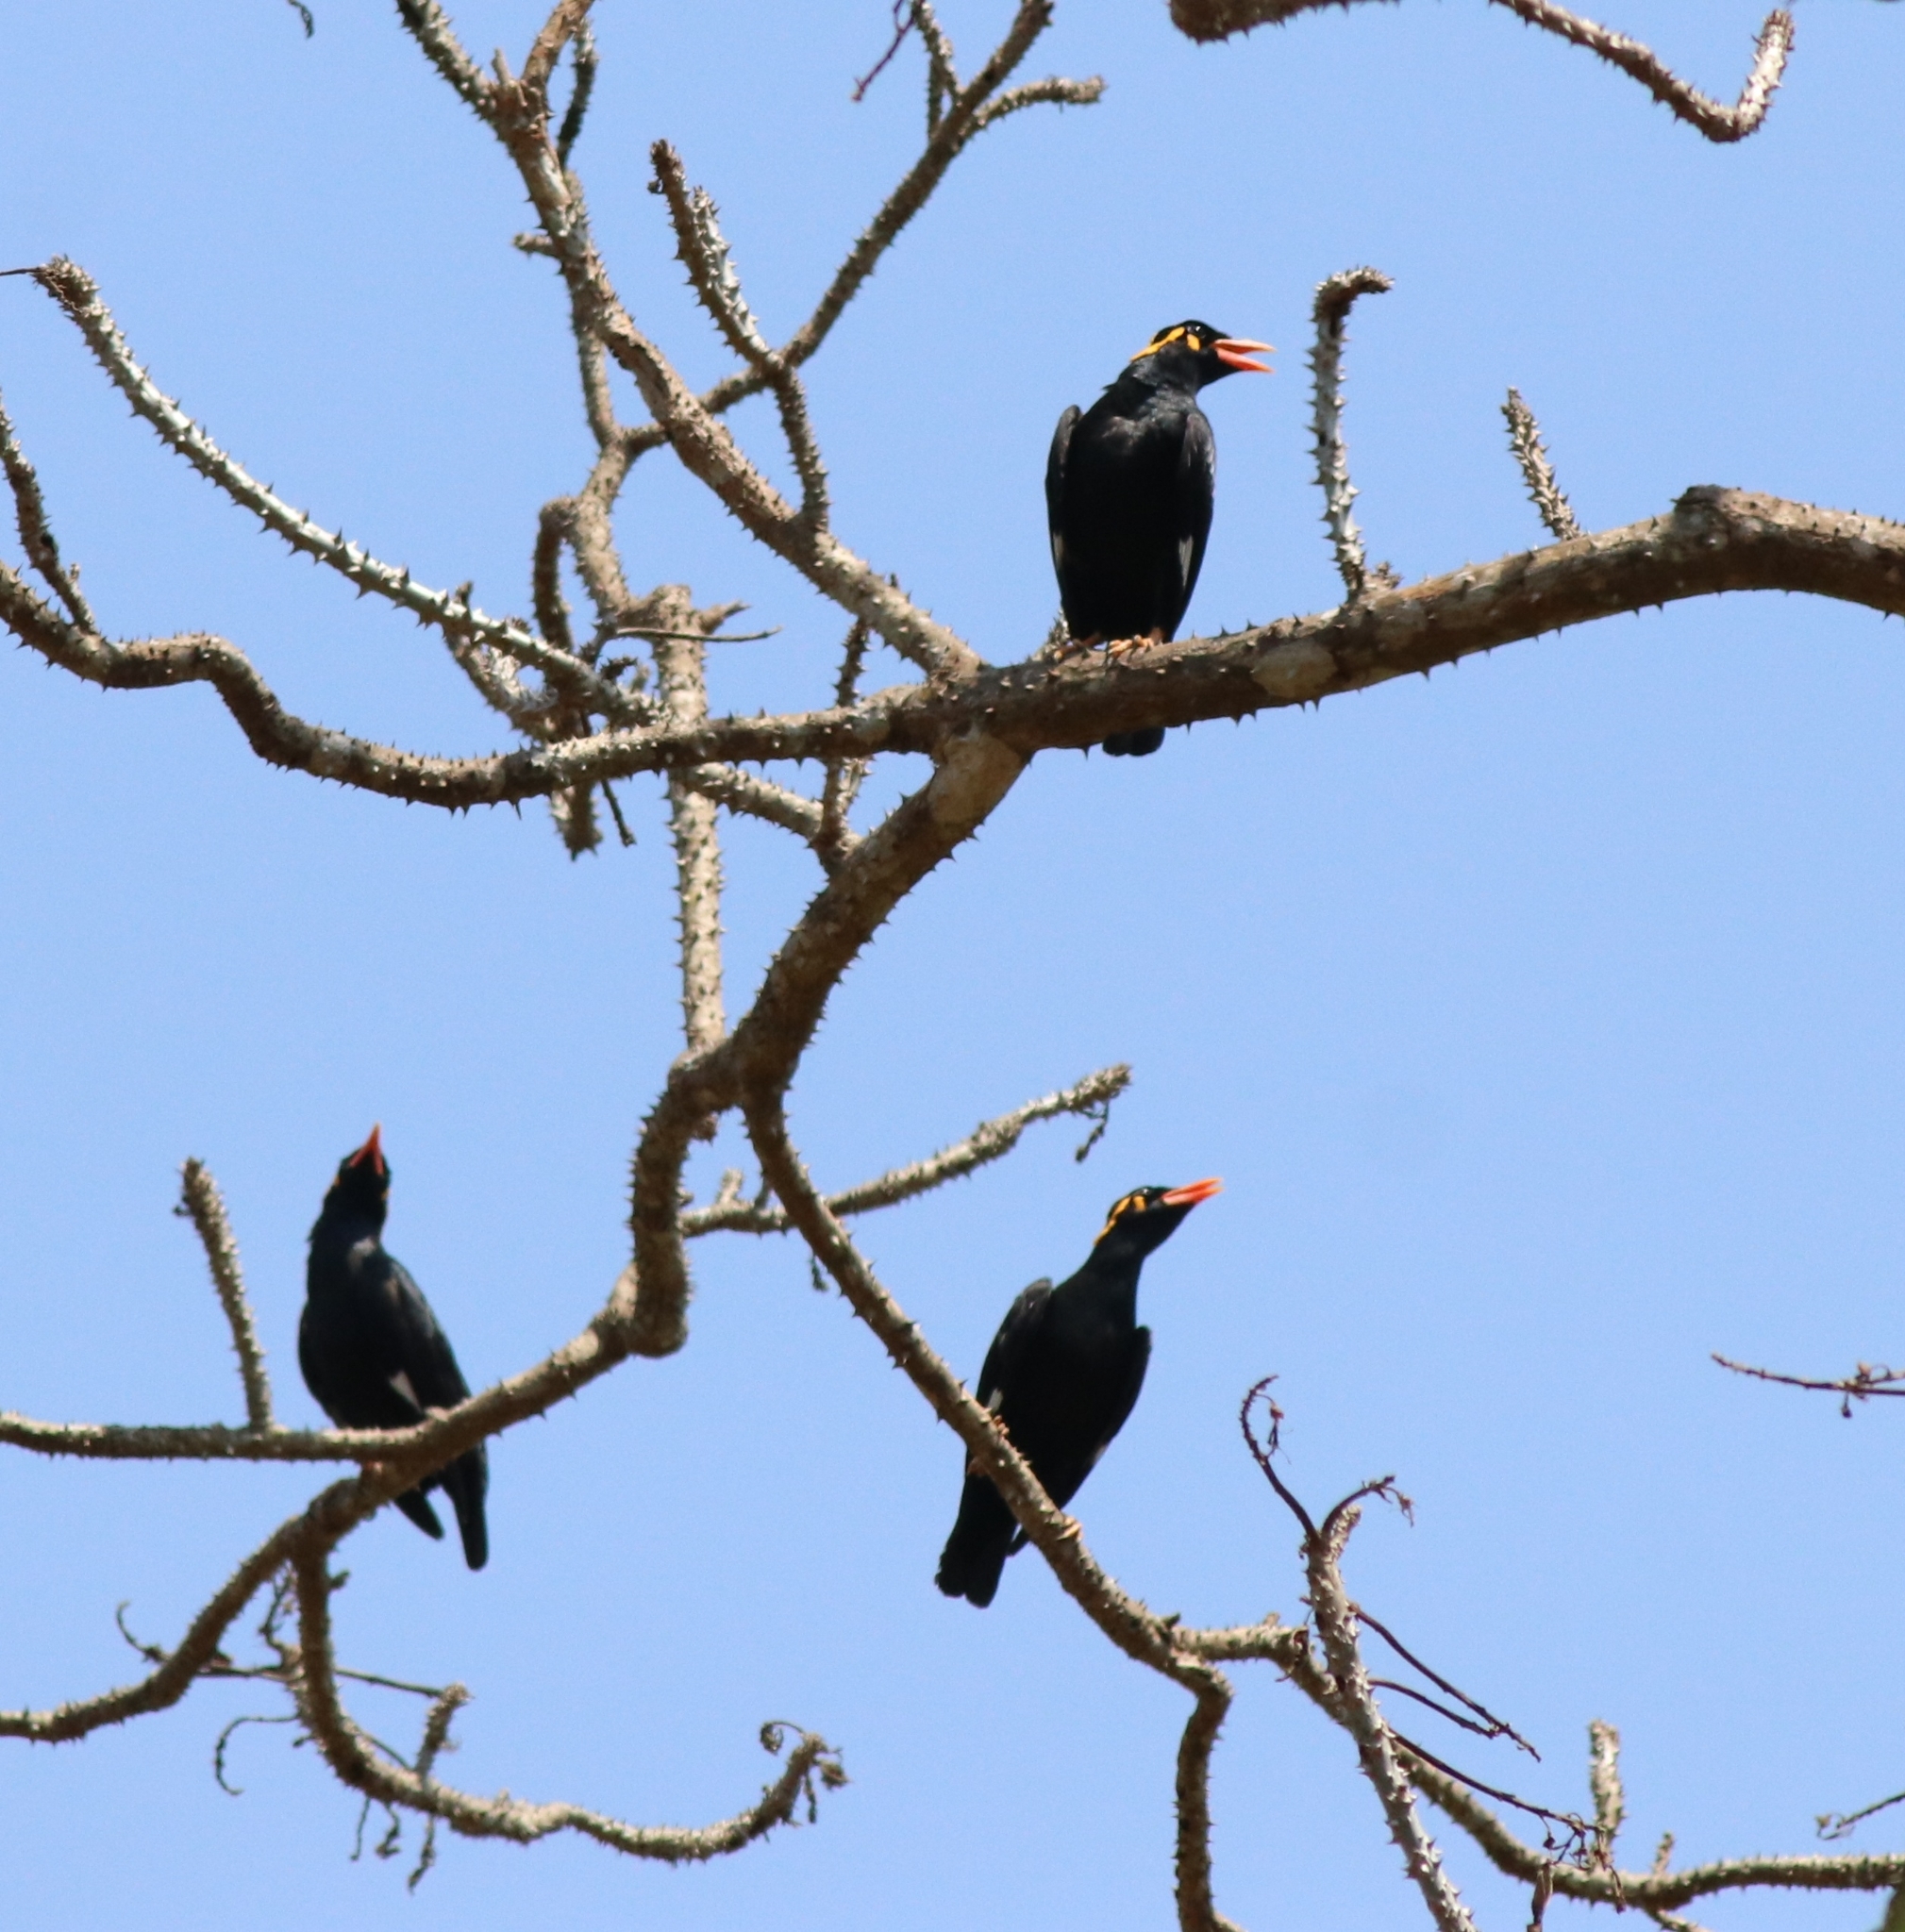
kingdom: Animalia
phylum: Chordata
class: Aves
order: Passeriformes
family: Sturnidae
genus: Gracula
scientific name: Gracula indica
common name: Southern hill myna
